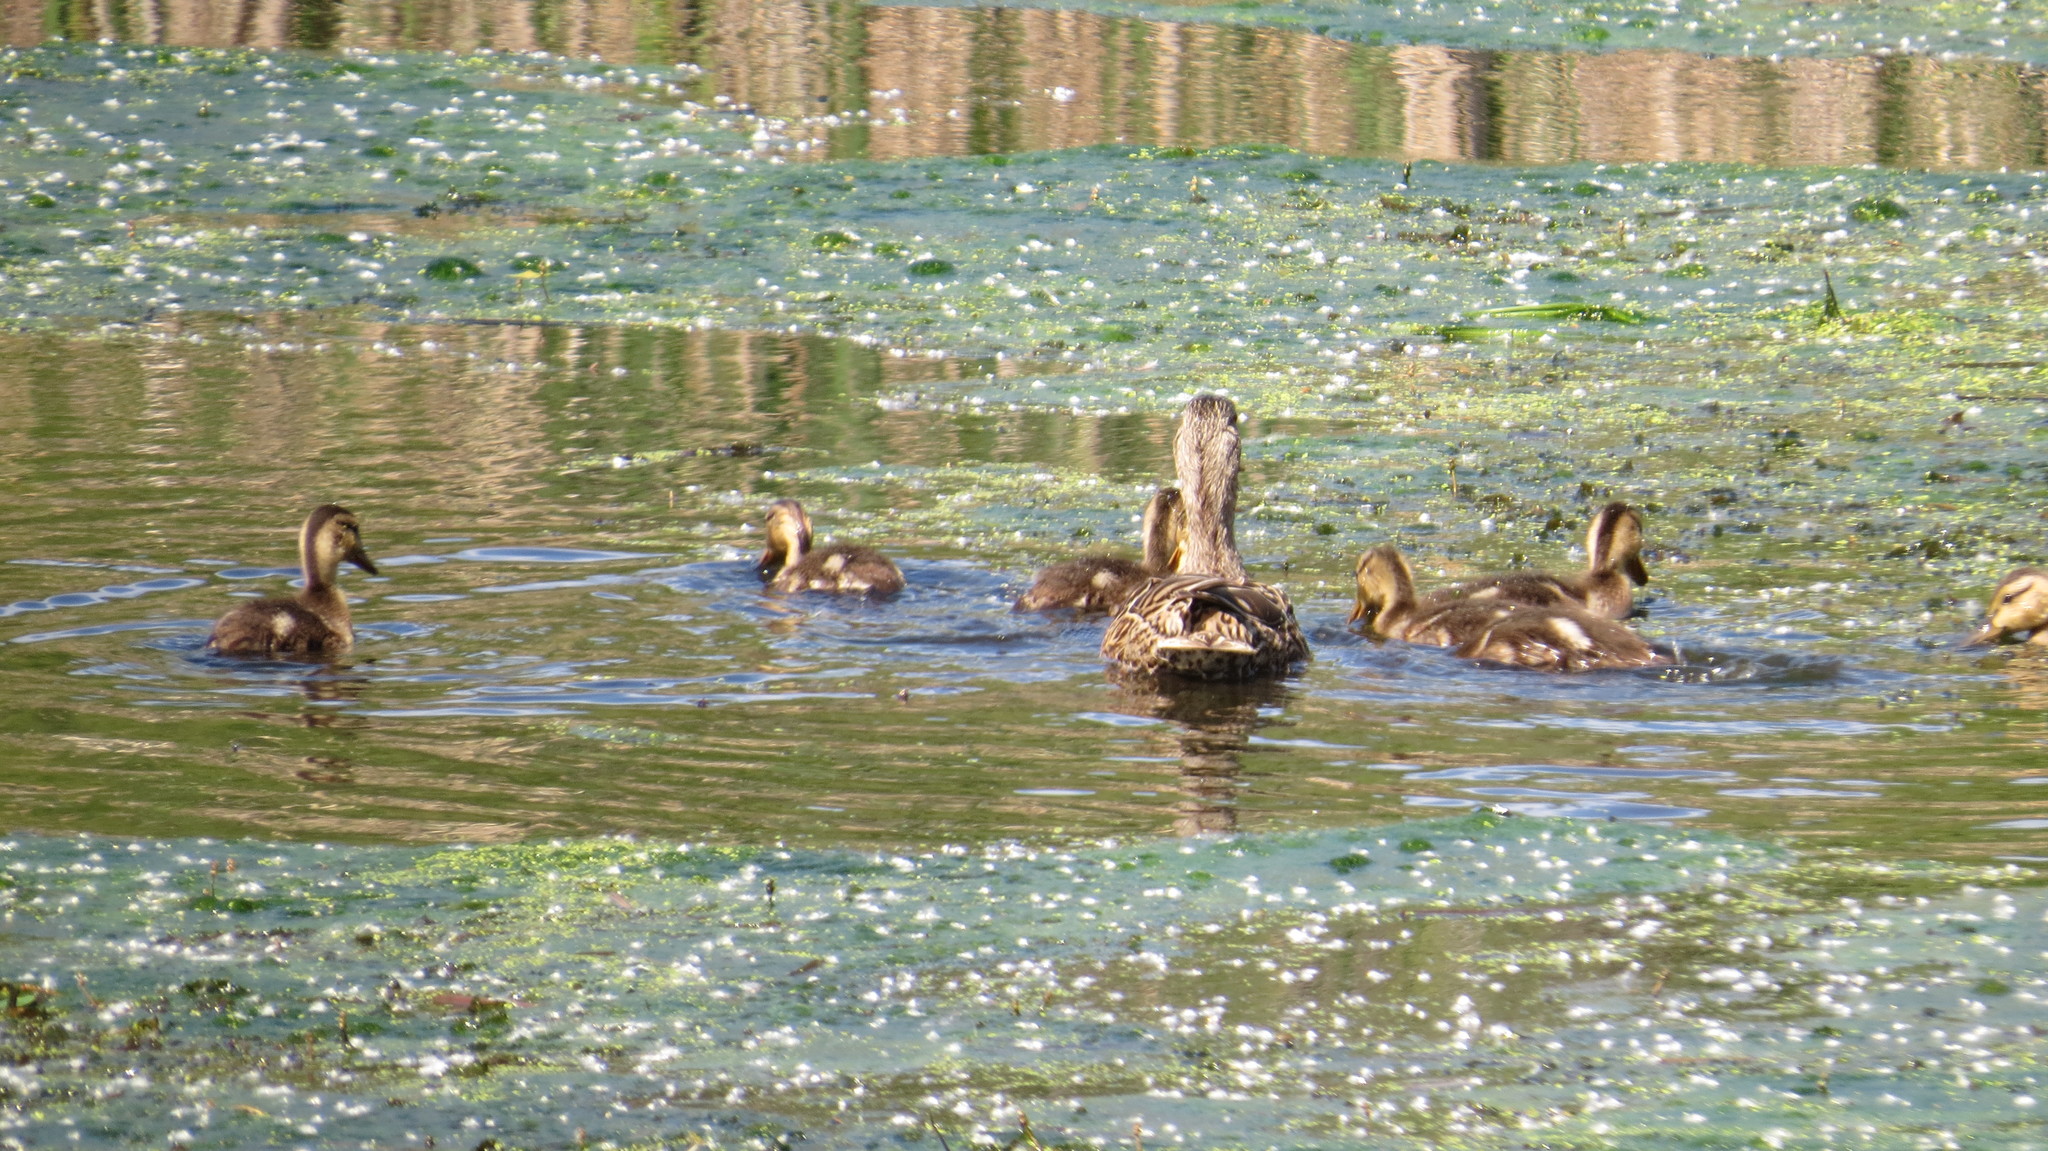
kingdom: Animalia
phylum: Chordata
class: Aves
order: Anseriformes
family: Anatidae
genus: Anas
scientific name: Anas platyrhynchos
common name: Mallard
